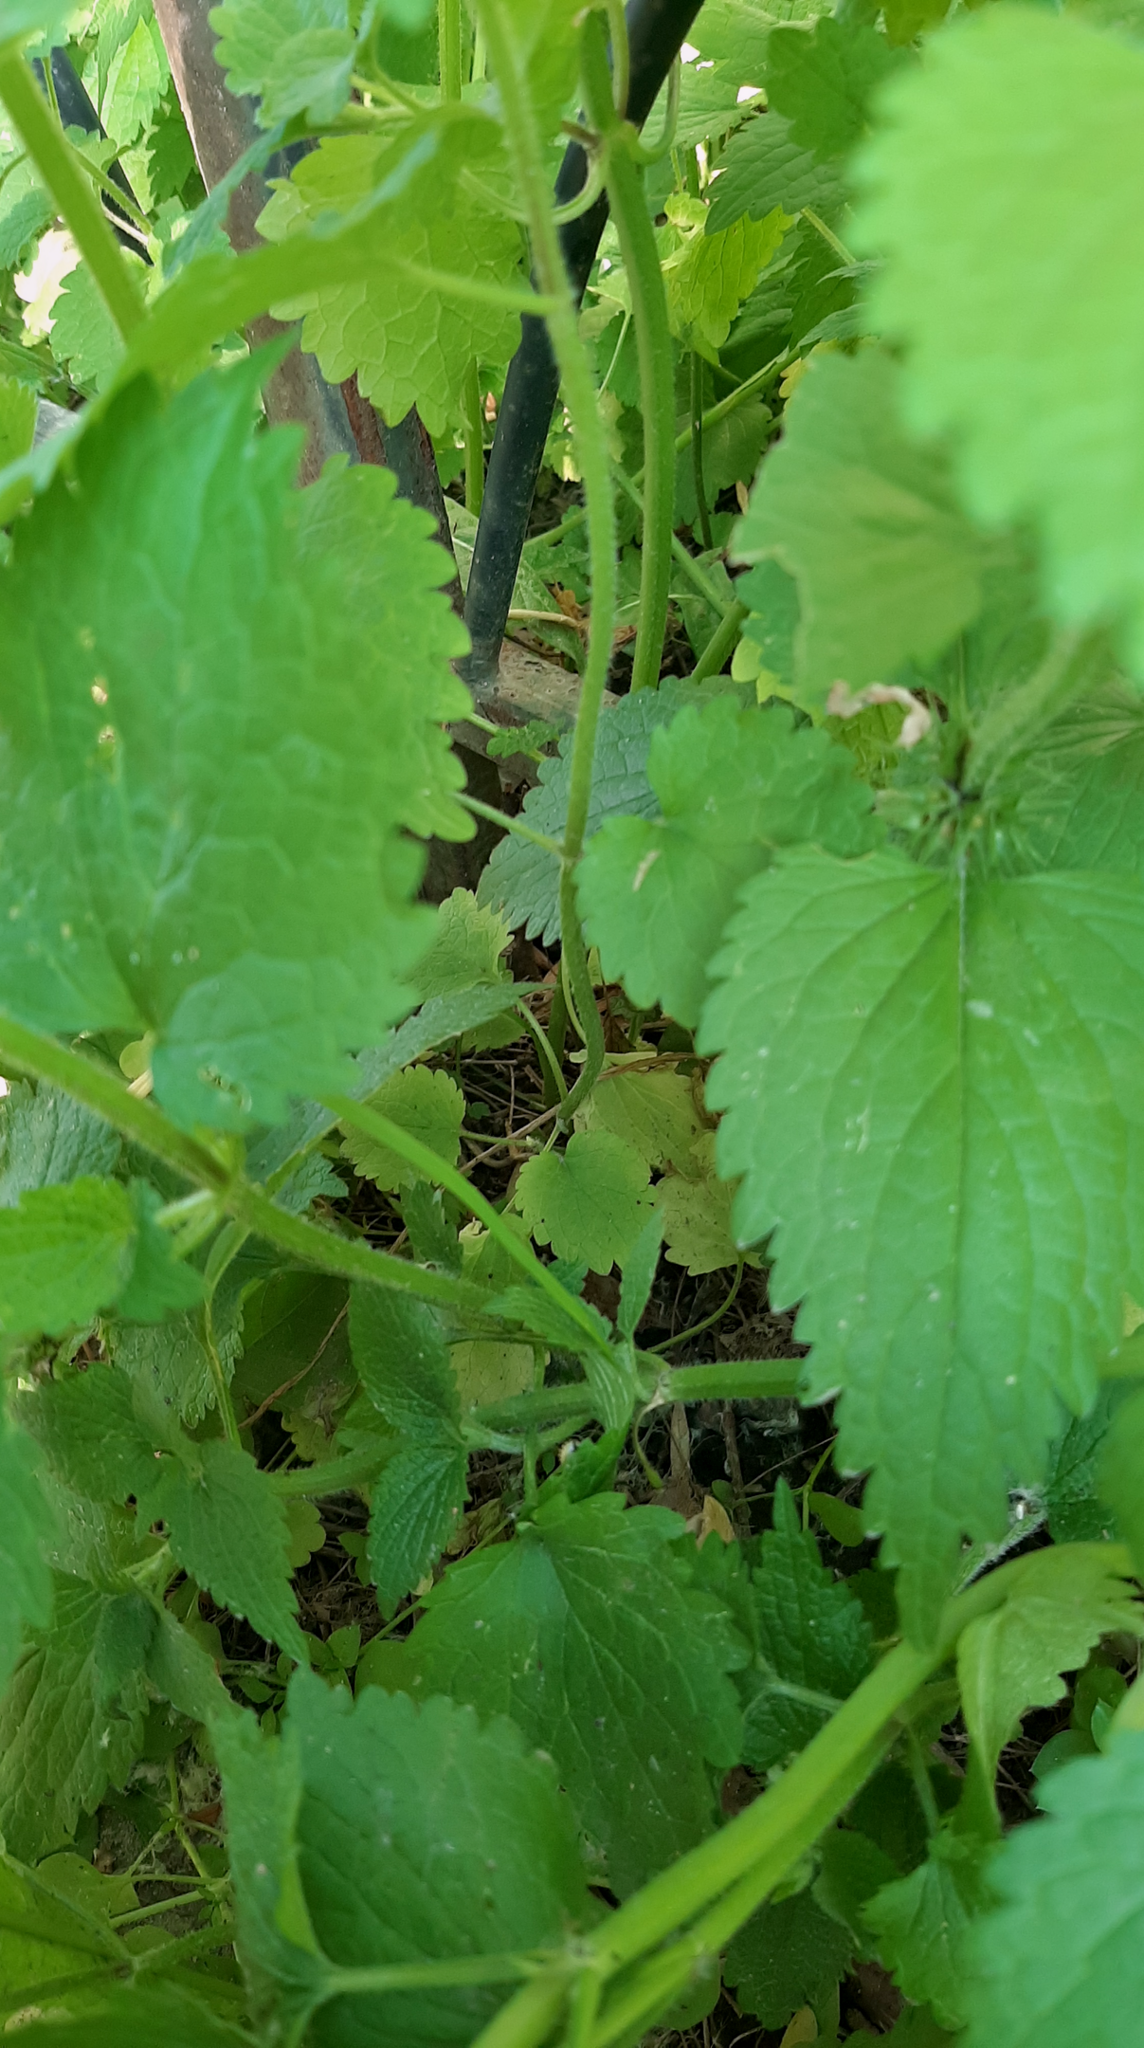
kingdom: Plantae
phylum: Tracheophyta
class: Magnoliopsida
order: Lamiales
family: Lamiaceae
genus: Lamium
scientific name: Lamium album
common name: White dead-nettle
